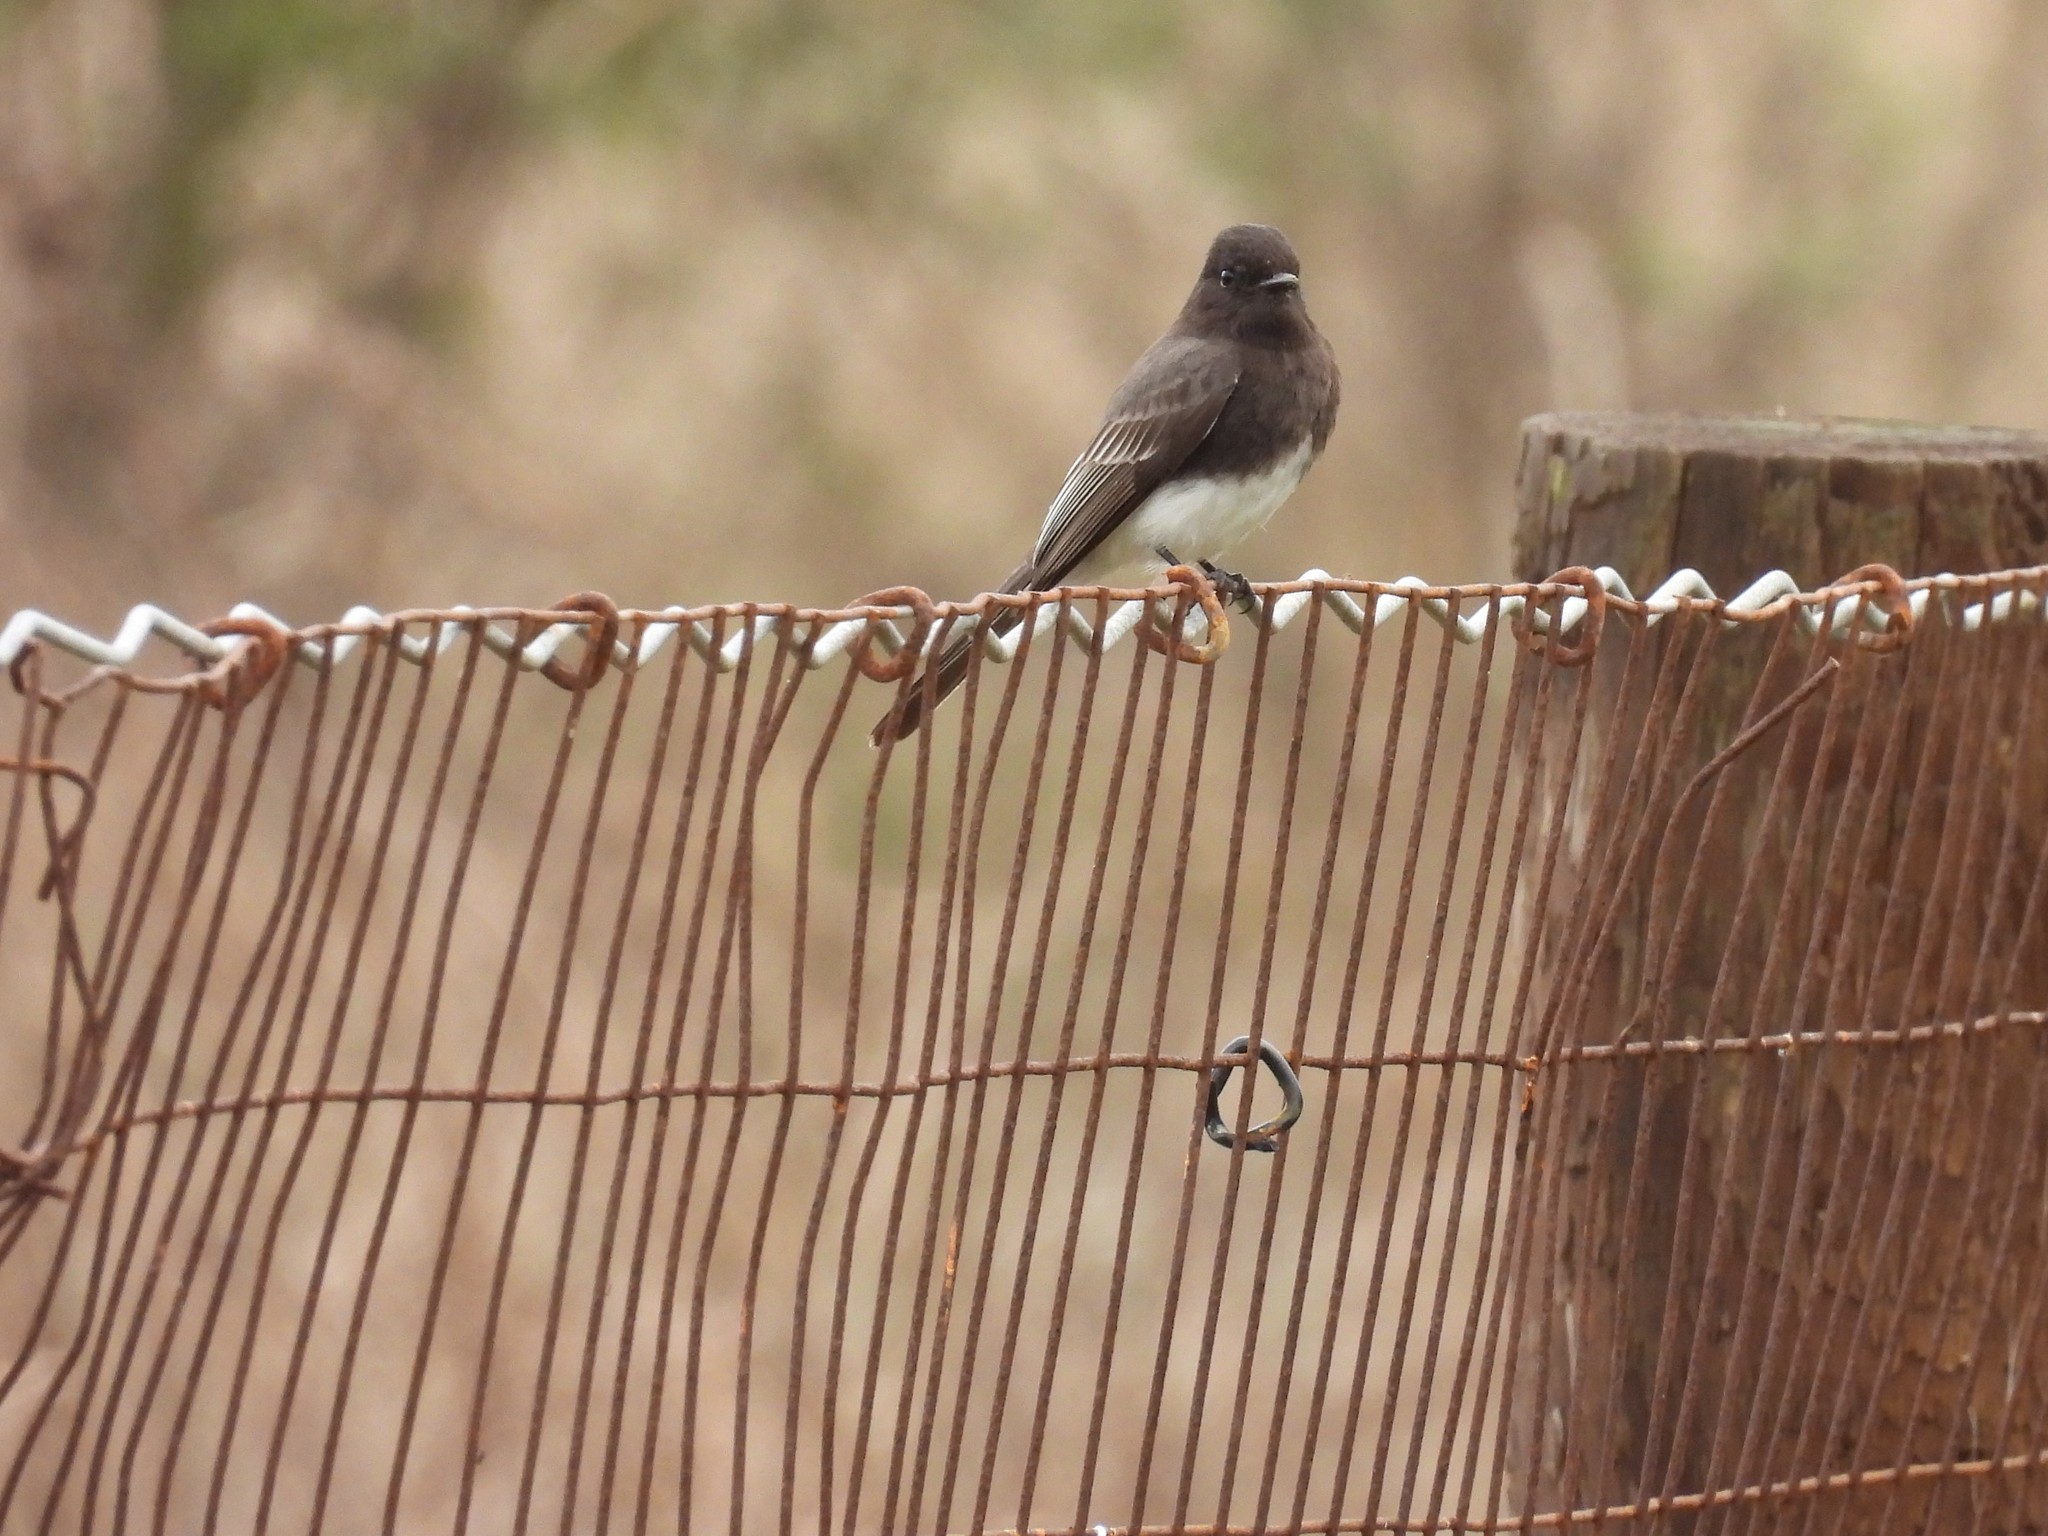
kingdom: Animalia
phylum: Chordata
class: Aves
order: Passeriformes
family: Tyrannidae
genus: Sayornis
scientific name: Sayornis nigricans
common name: Black phoebe
